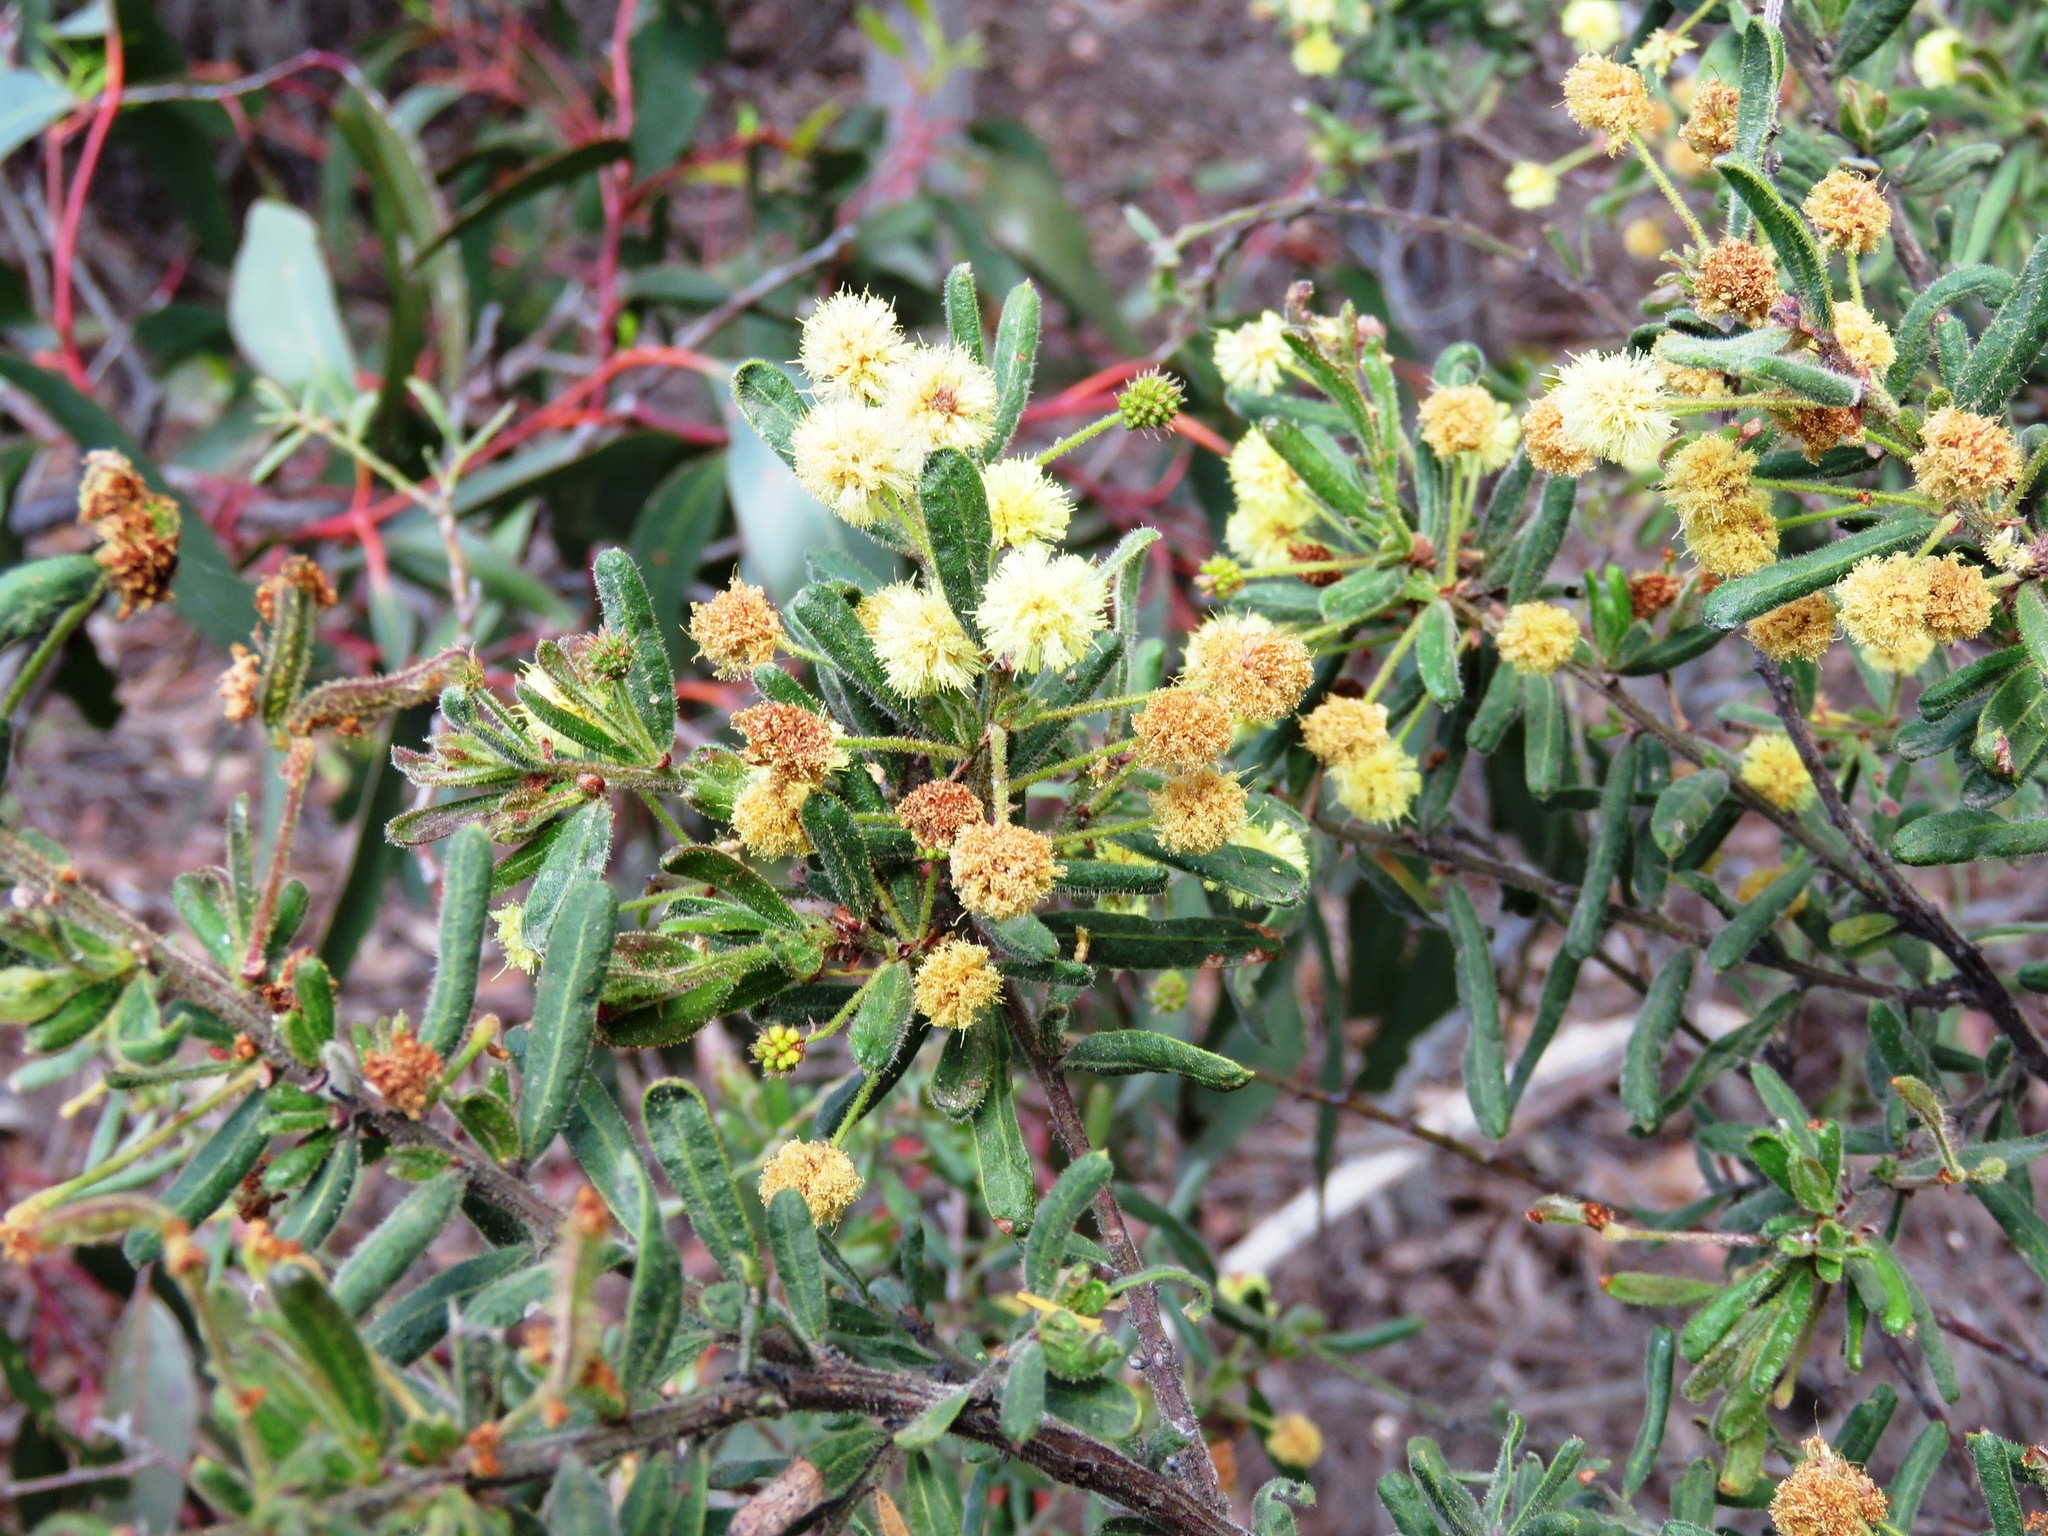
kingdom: Plantae
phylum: Tracheophyta
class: Magnoliopsida
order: Fabales
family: Fabaceae
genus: Acacia
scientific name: Acacia aspera
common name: Rough wattle
